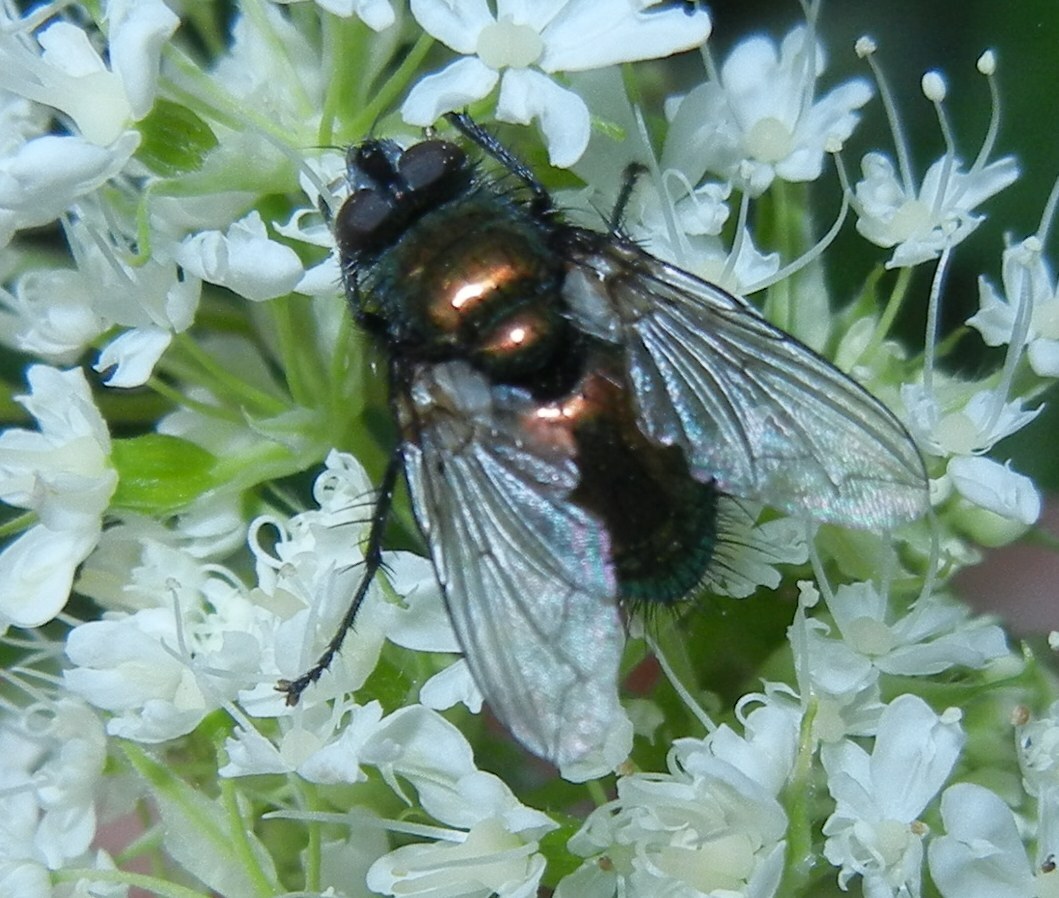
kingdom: Animalia
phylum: Arthropoda
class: Insecta
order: Diptera
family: Tachinidae
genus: Gymnocheta
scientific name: Gymnocheta viridis
